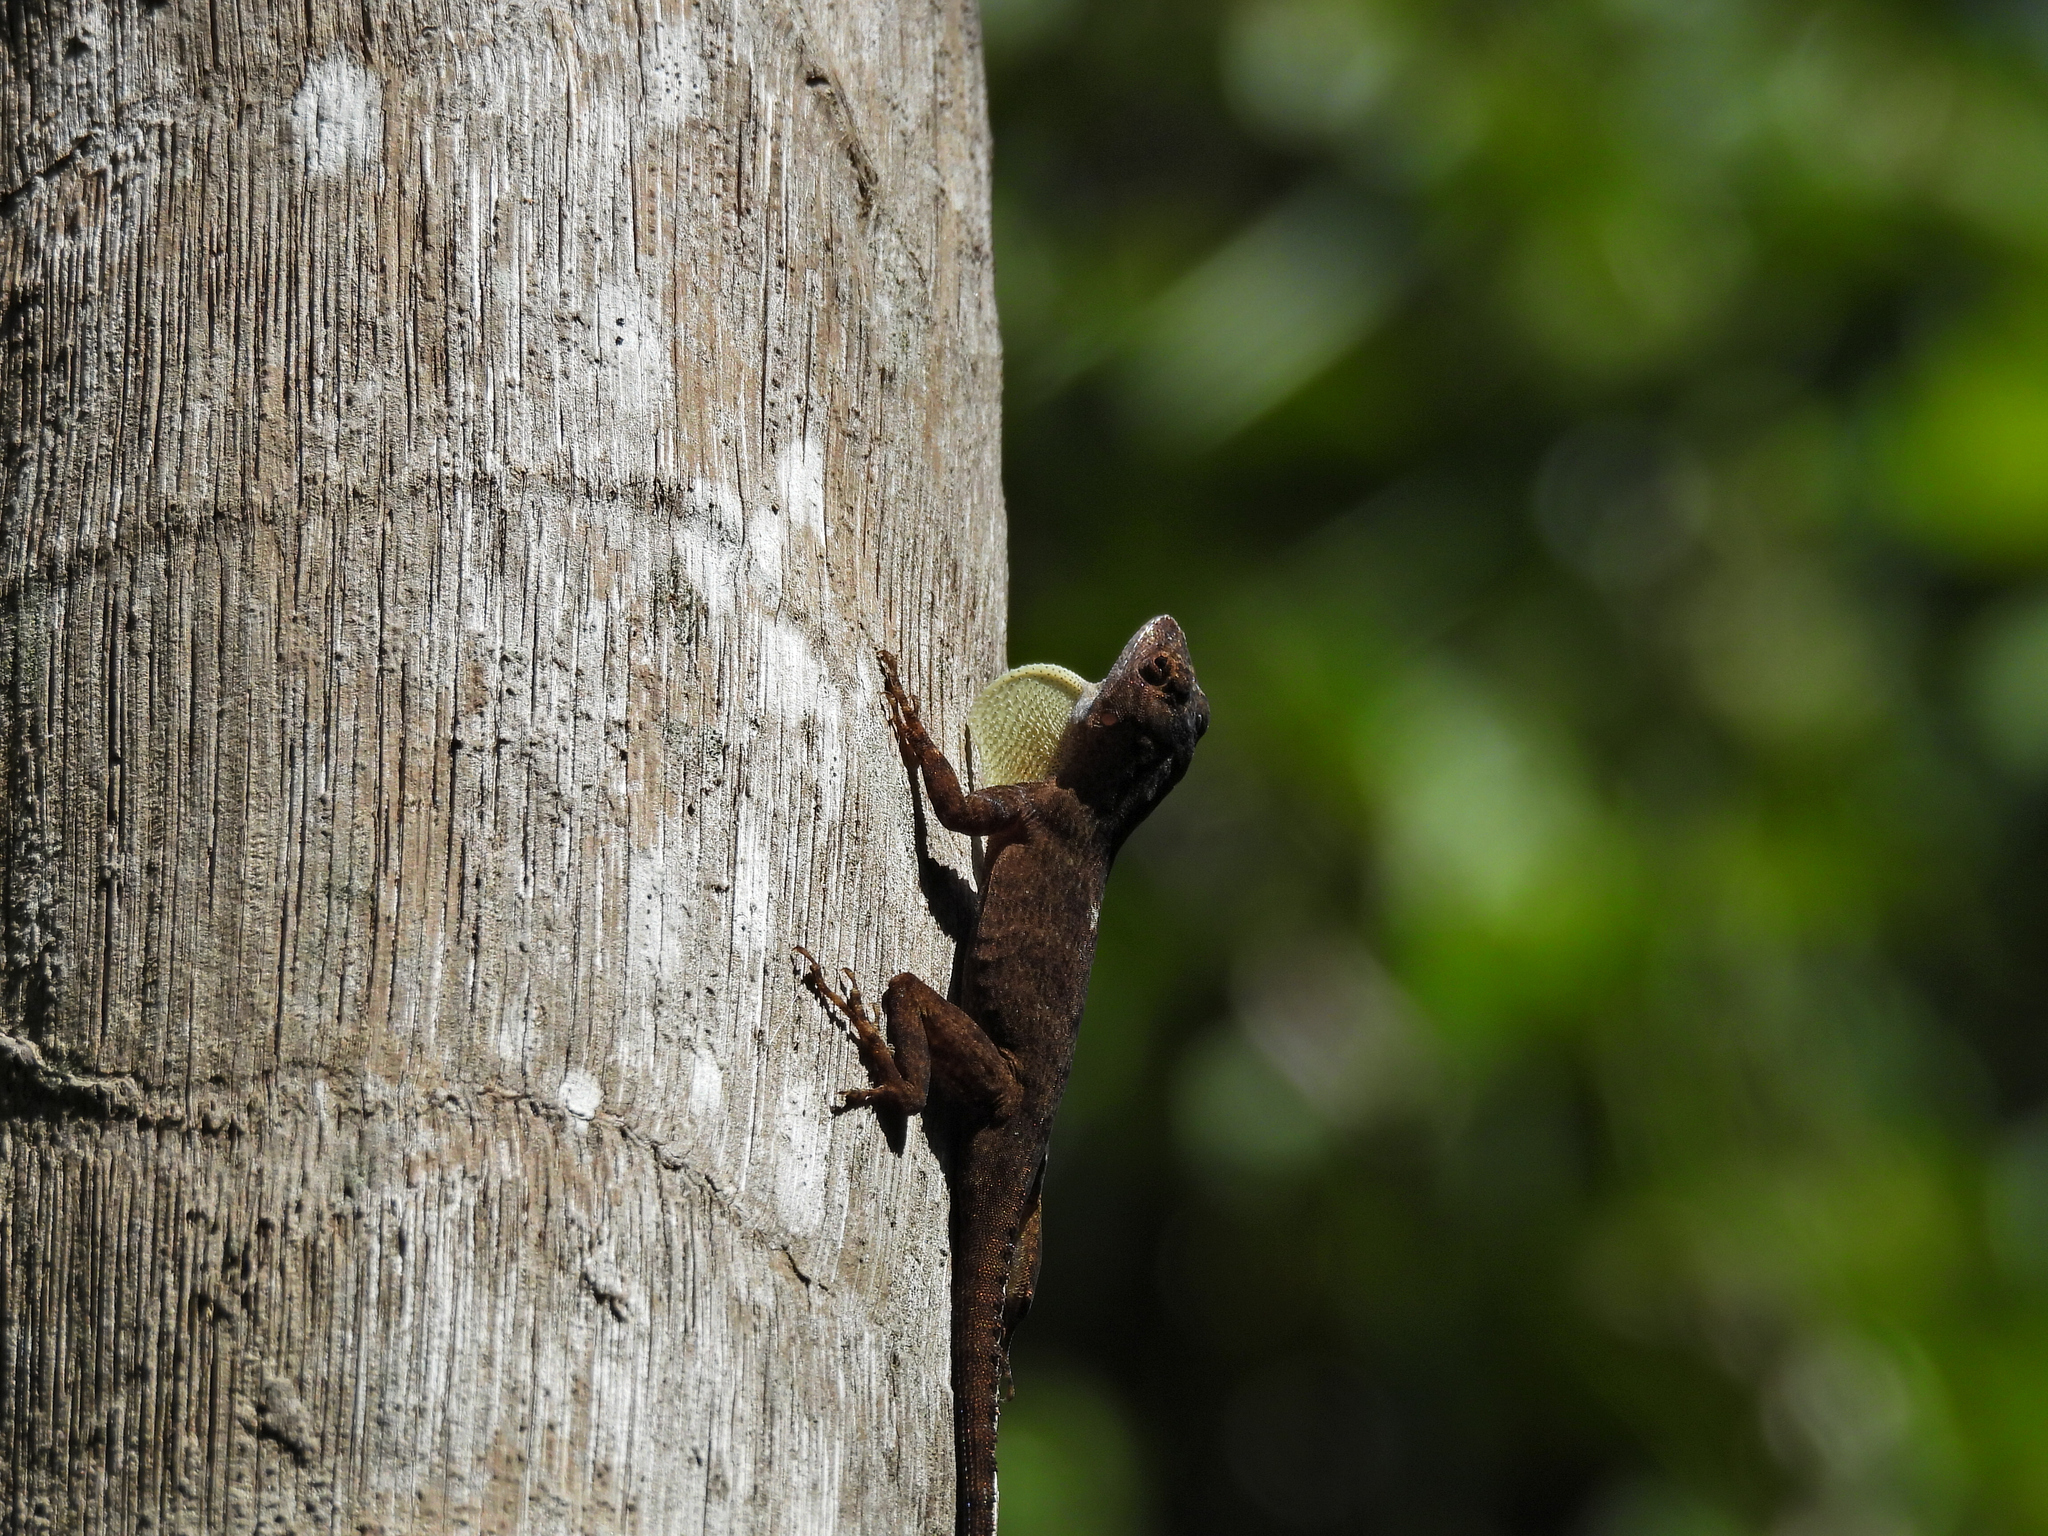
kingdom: Animalia
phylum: Chordata
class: Squamata
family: Dactyloidae
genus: Anolis
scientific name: Anolis distichus
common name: Bark anole
